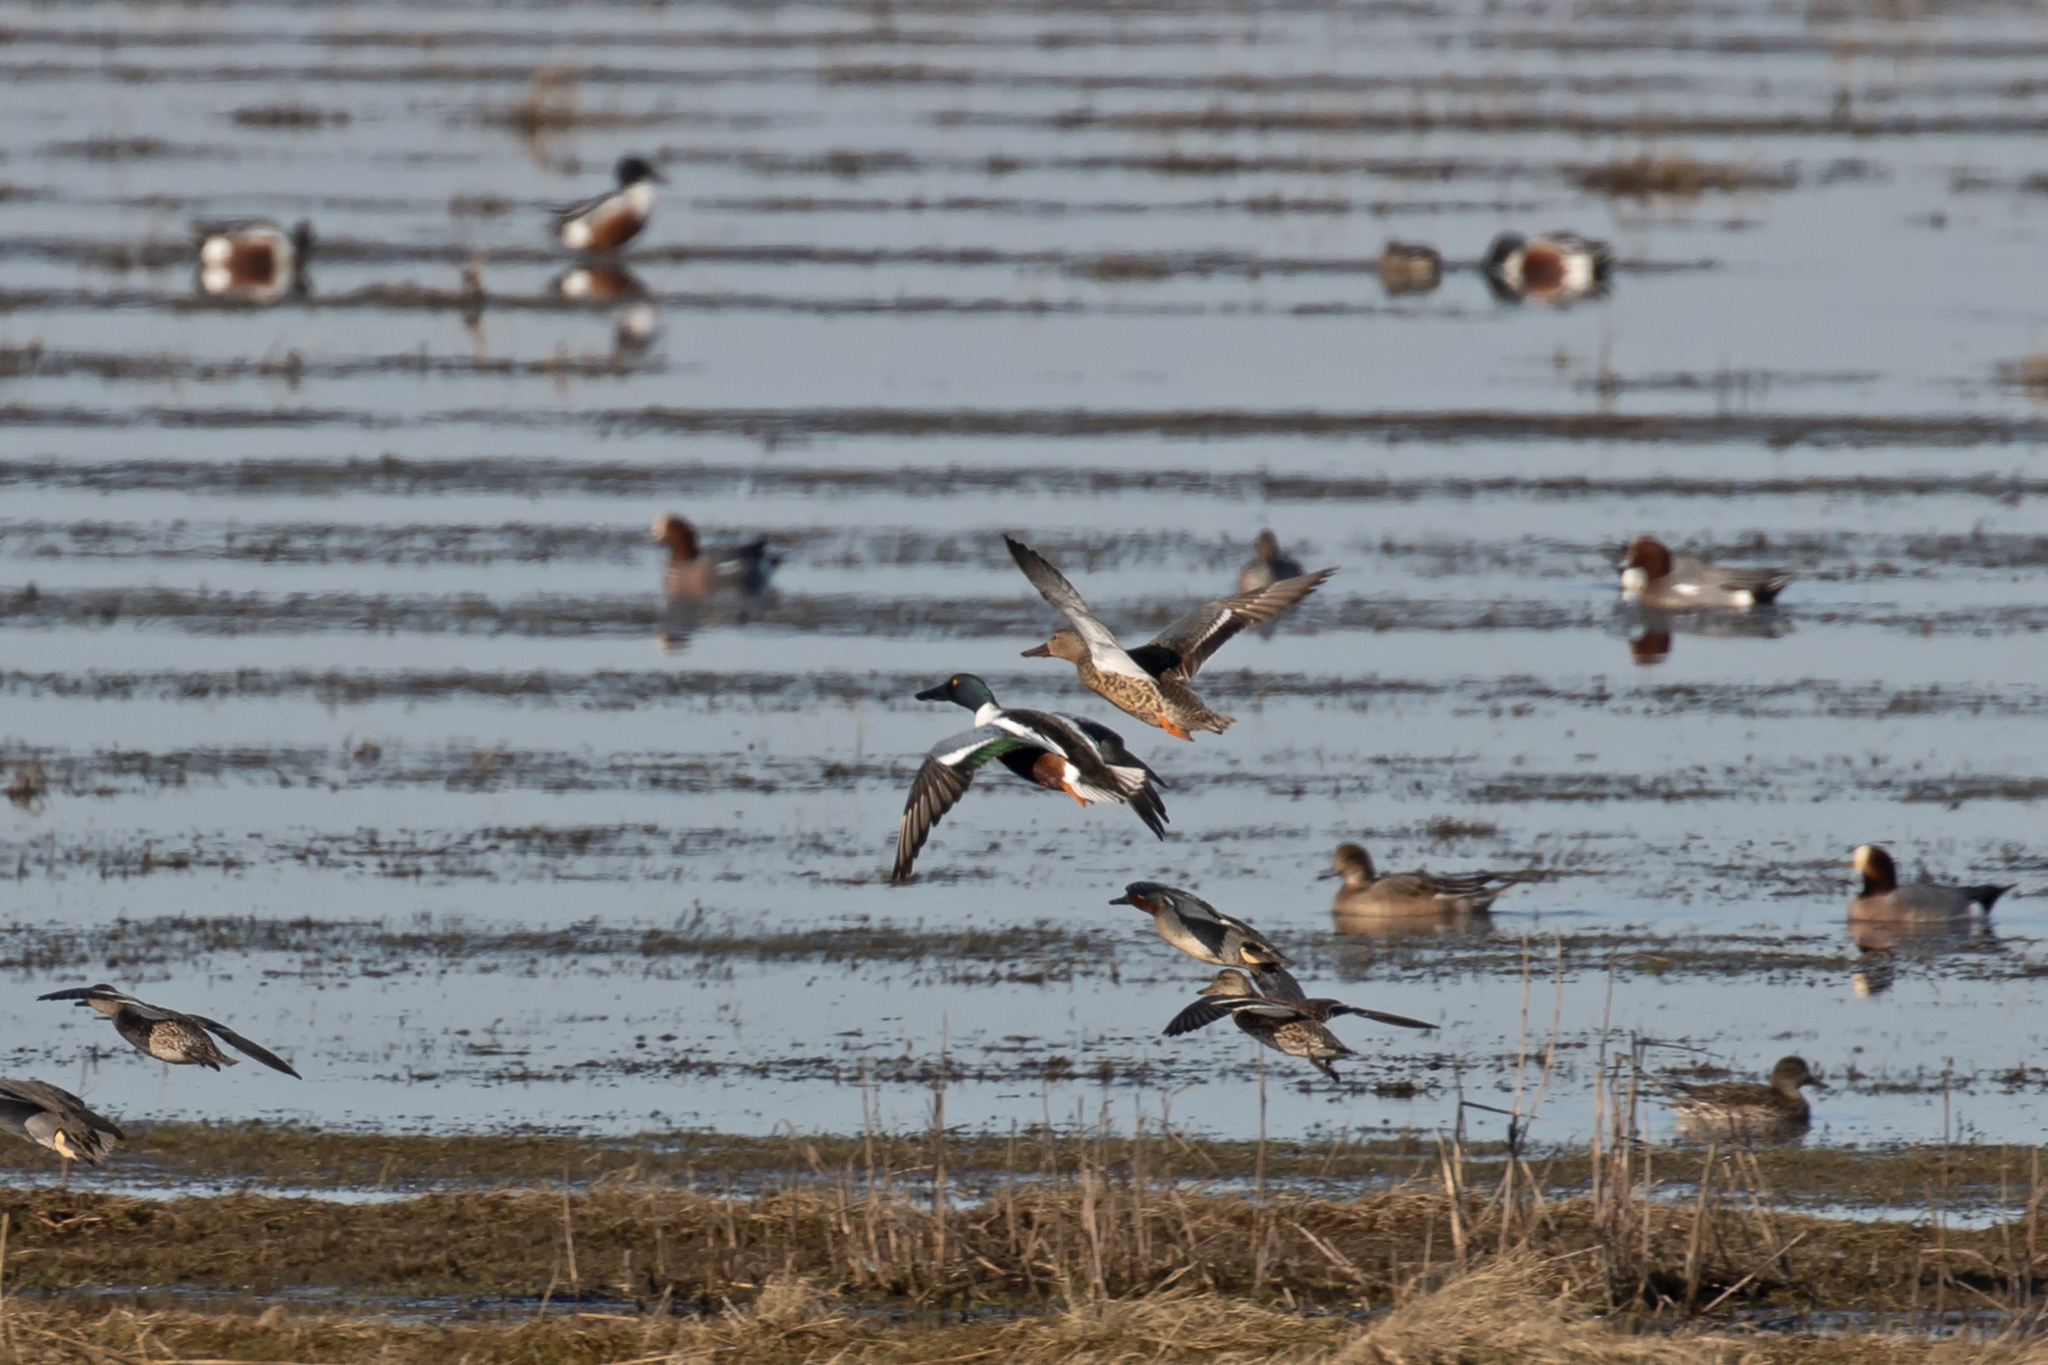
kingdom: Animalia
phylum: Chordata
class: Aves
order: Anseriformes
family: Anatidae
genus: Spatula
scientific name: Spatula clypeata
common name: Northern shoveler
